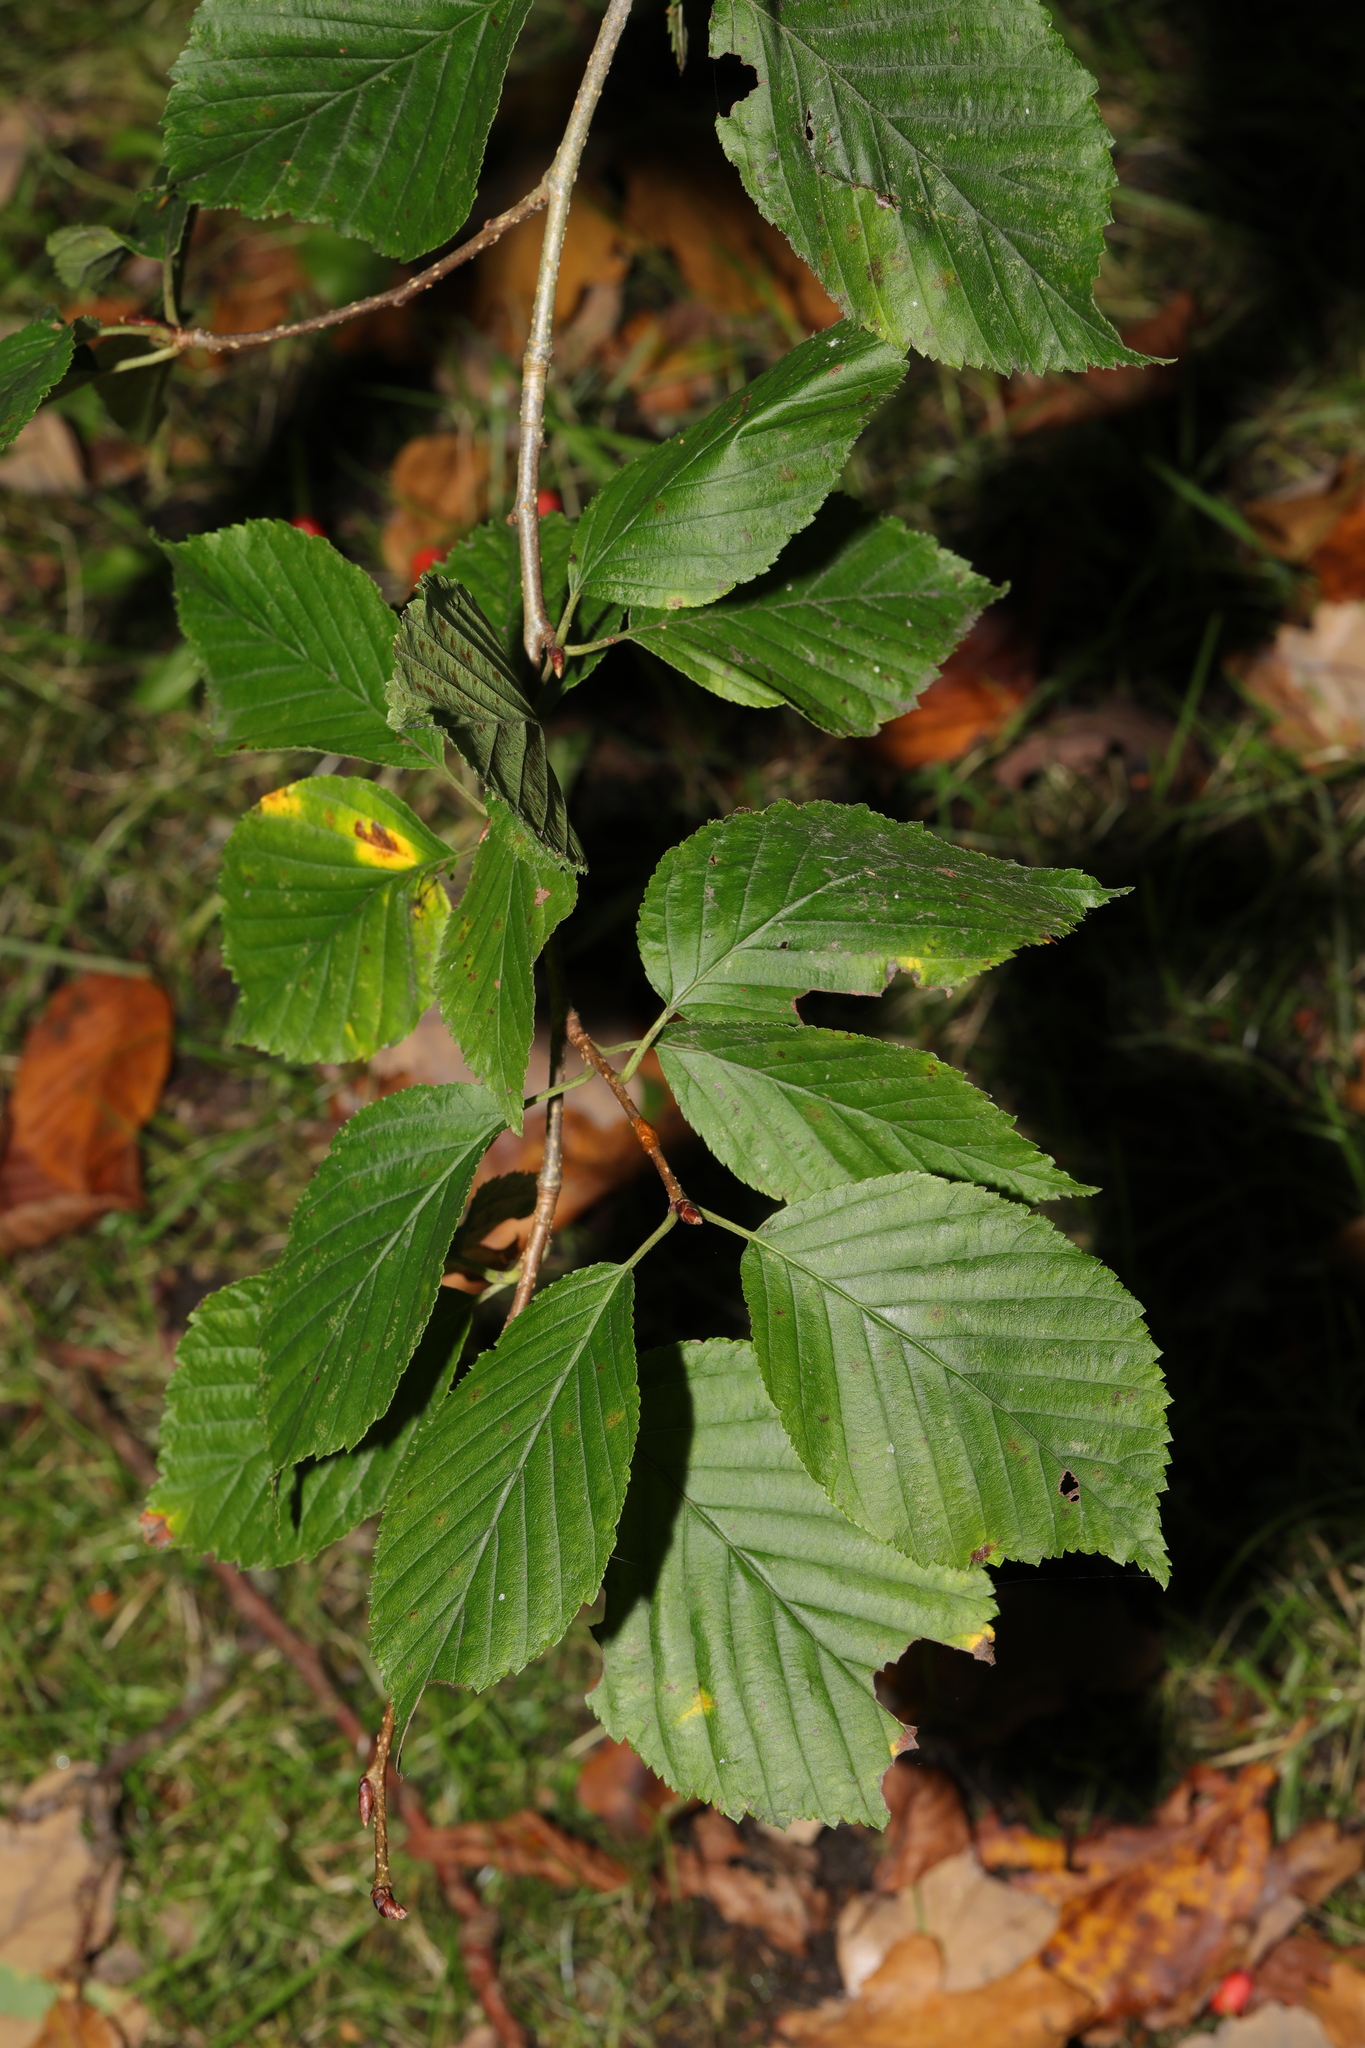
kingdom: Plantae
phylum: Tracheophyta
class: Magnoliopsida
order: Rosales
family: Rosaceae
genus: Prunus
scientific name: Prunus avium
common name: Sweet cherry
